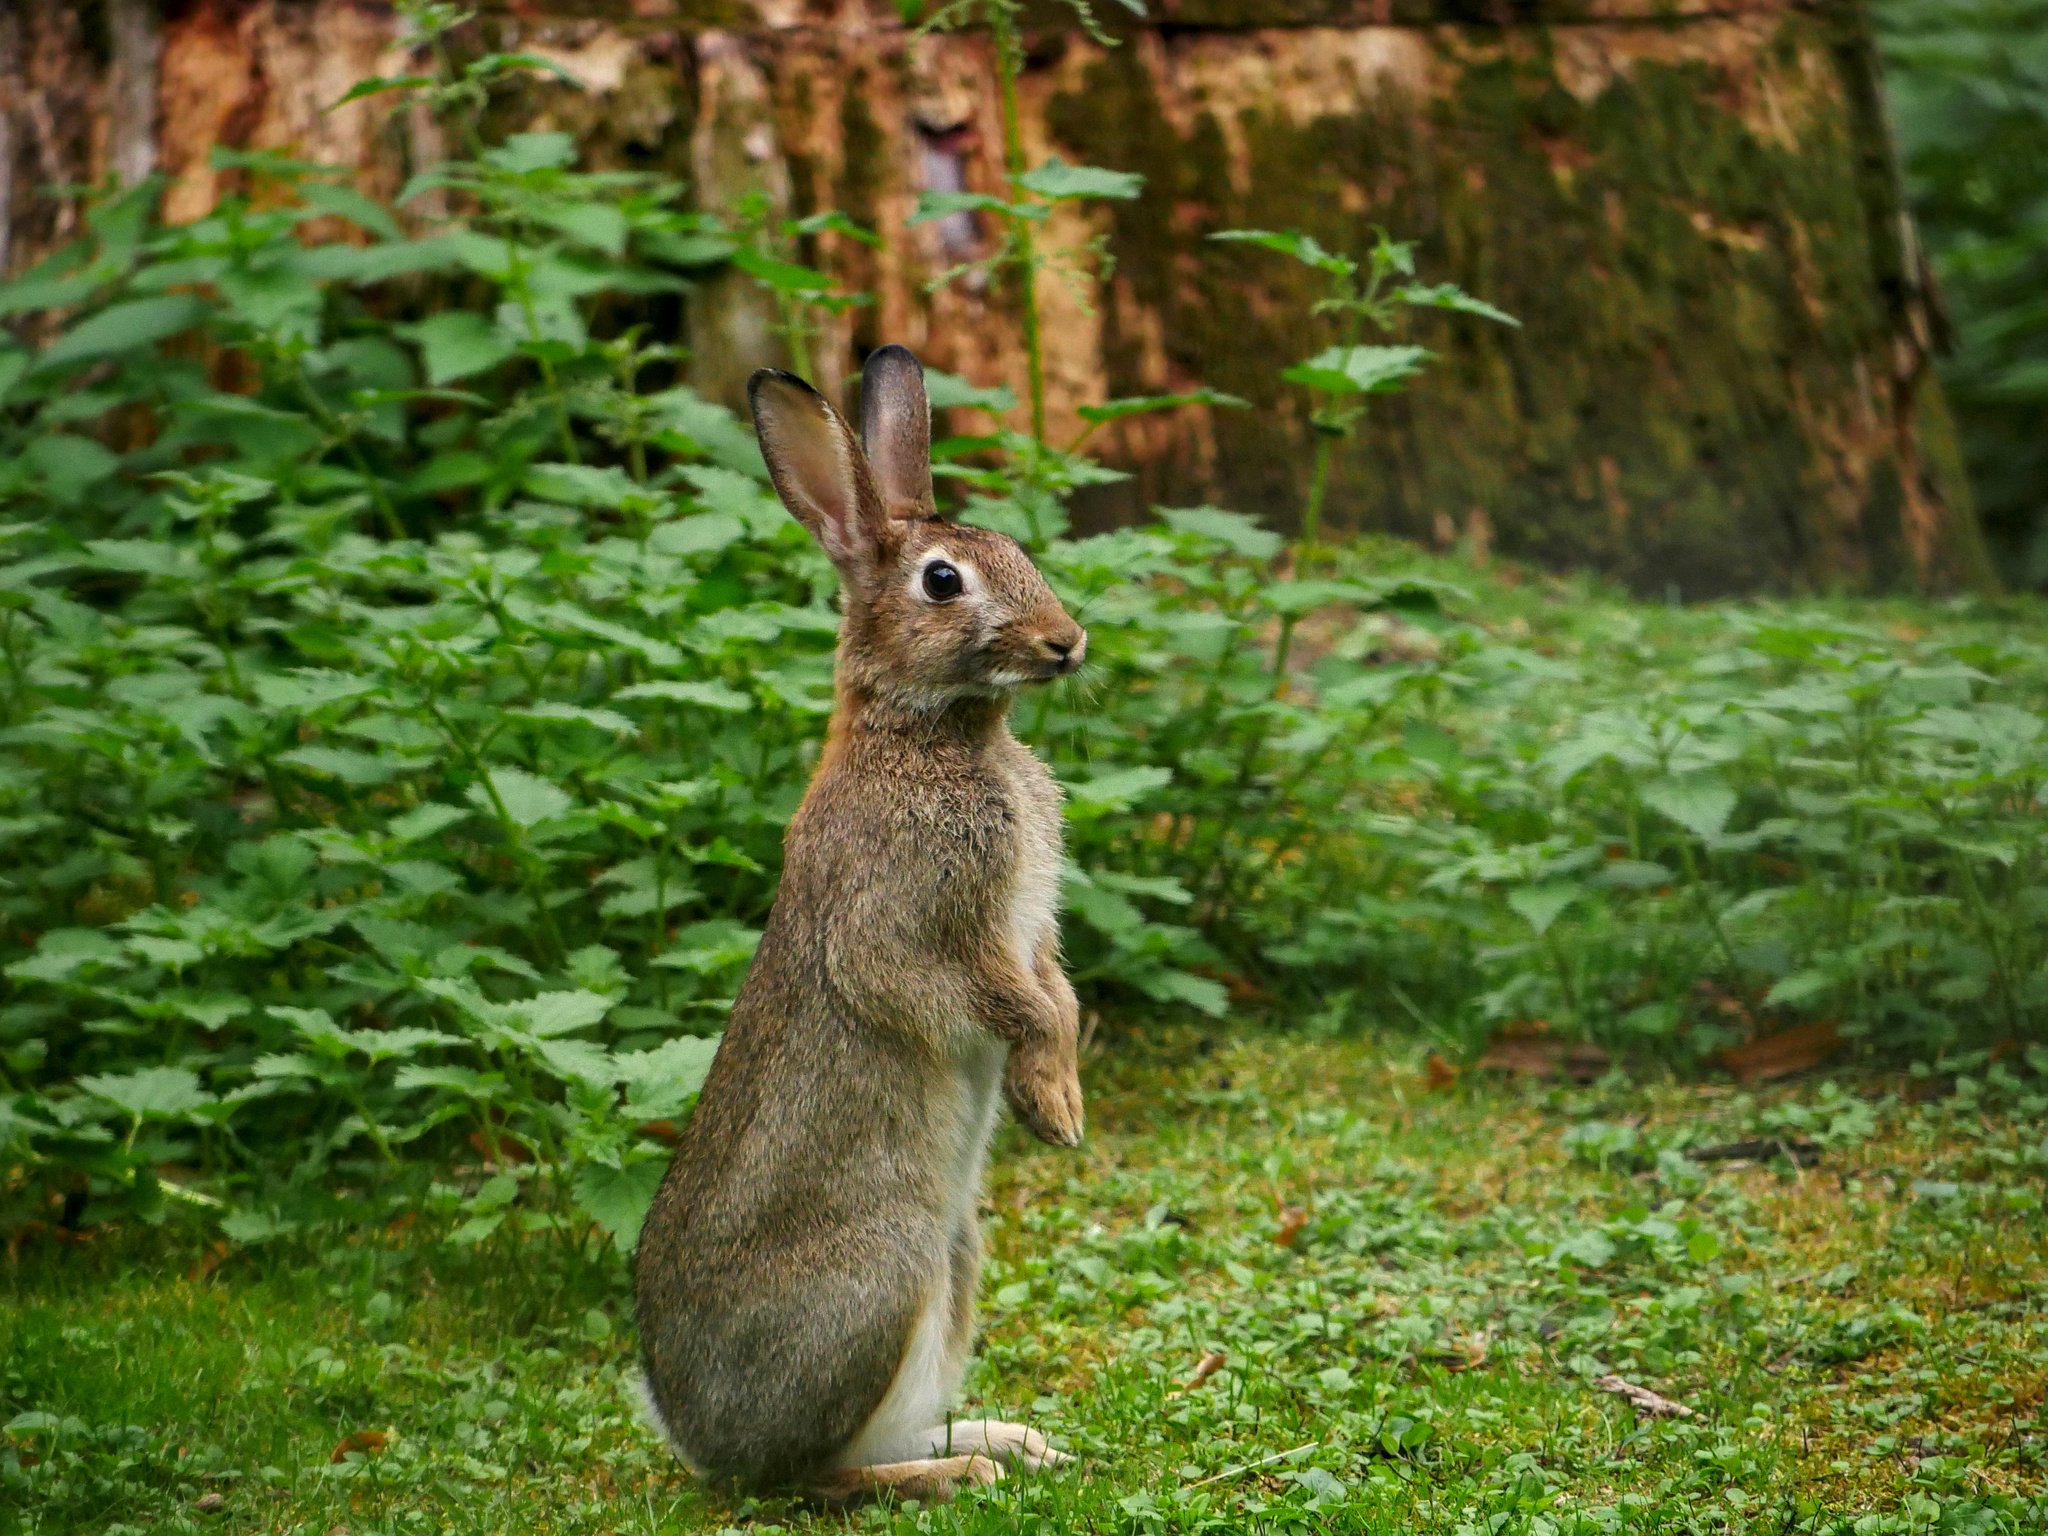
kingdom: Animalia
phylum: Chordata
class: Mammalia
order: Lagomorpha
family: Leporidae
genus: Oryctolagus
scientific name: Oryctolagus cuniculus
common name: European rabbit
